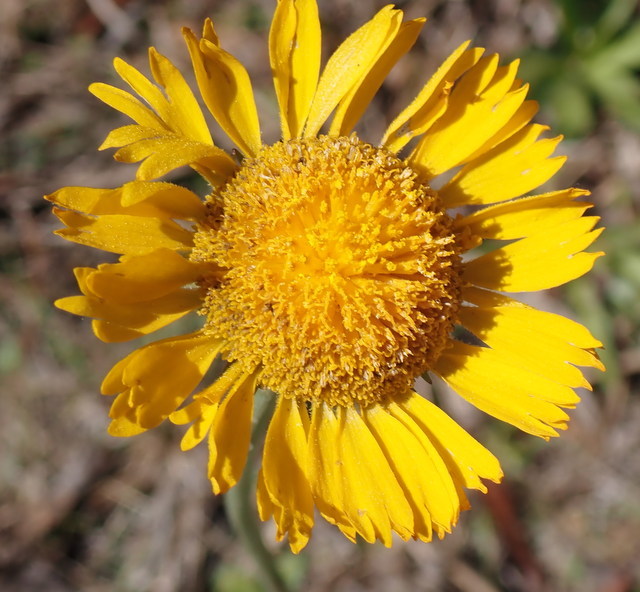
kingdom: Plantae
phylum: Tracheophyta
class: Magnoliopsida
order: Asterales
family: Asteraceae
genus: Helenium
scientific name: Helenium pinnatifidum
